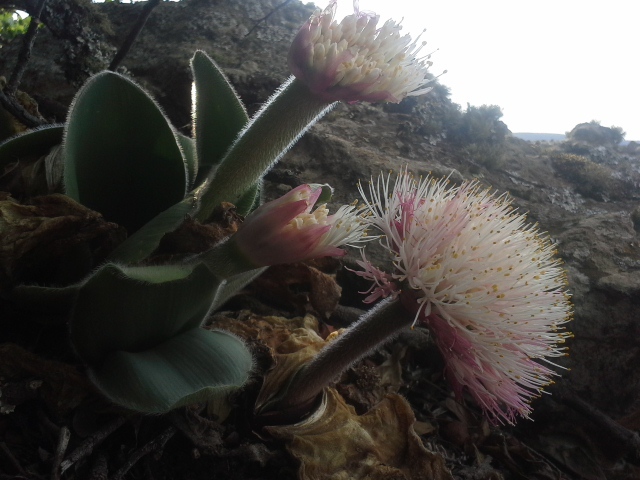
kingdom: Plantae
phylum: Tracheophyta
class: Liliopsida
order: Asparagales
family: Amaryllidaceae
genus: Haemanthus
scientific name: Haemanthus humilis
